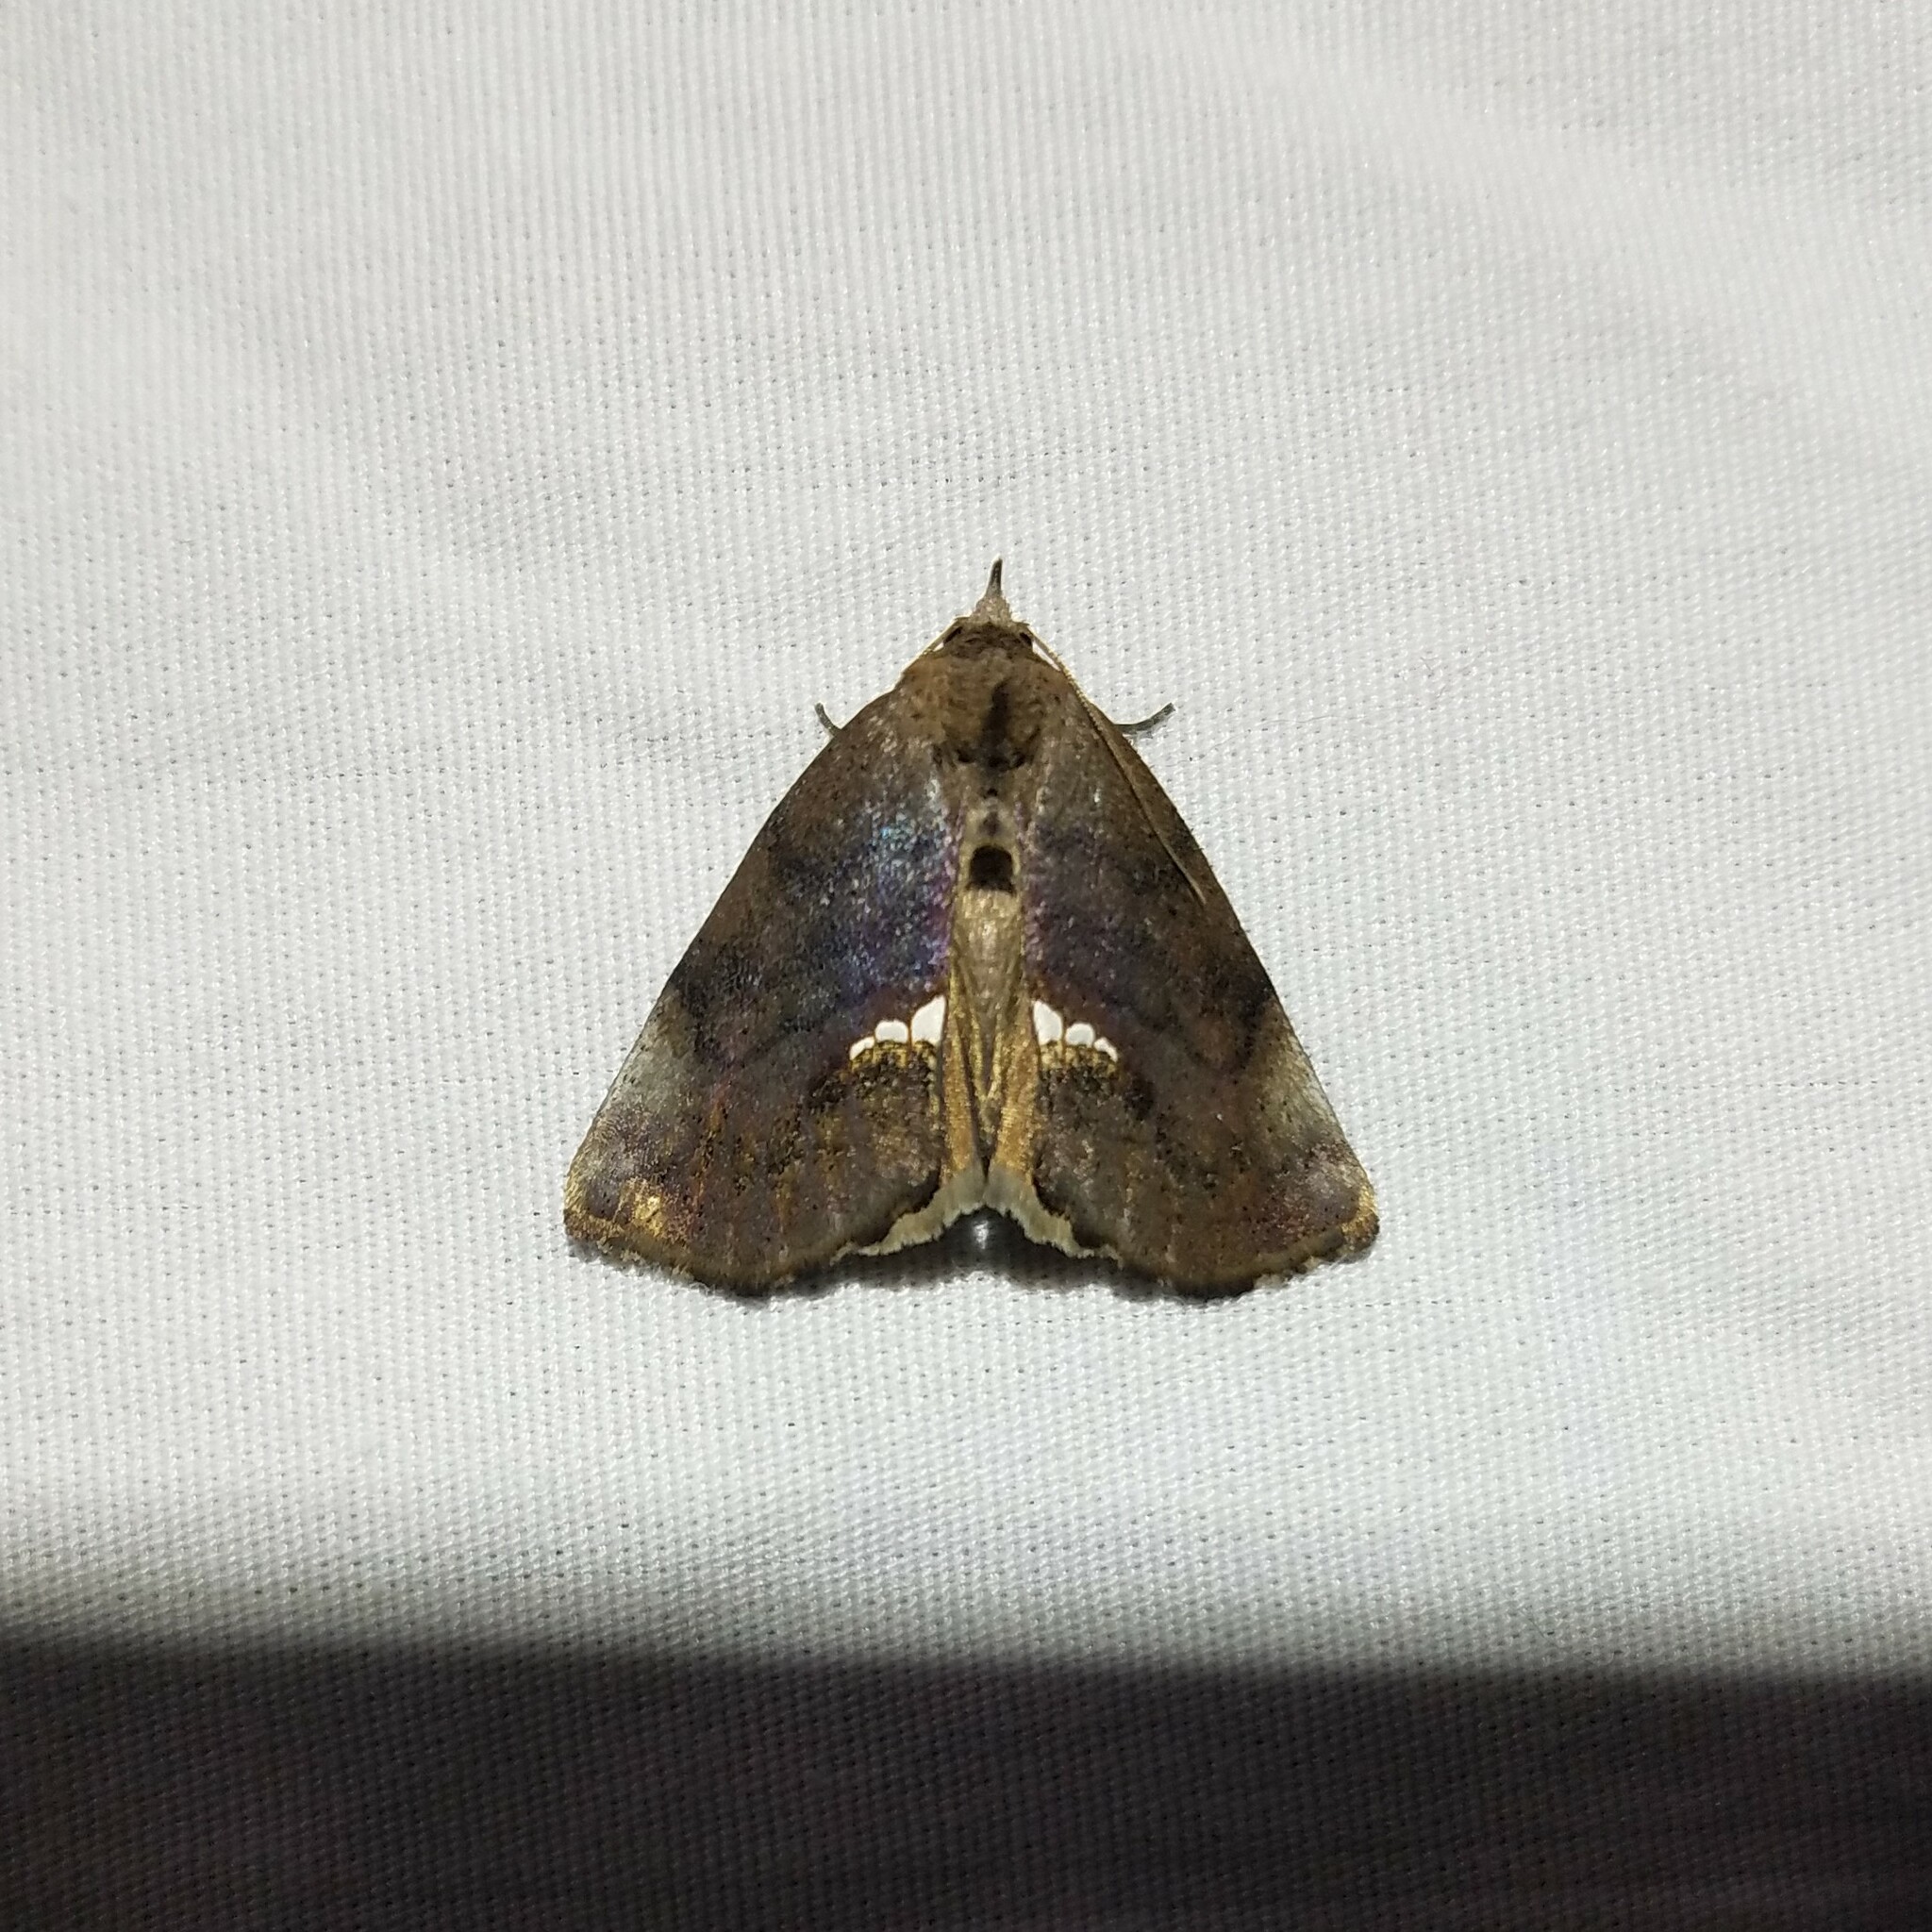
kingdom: Animalia
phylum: Arthropoda
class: Insecta
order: Lepidoptera
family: Erebidae
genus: Hypsoropha
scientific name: Hypsoropha hormos
